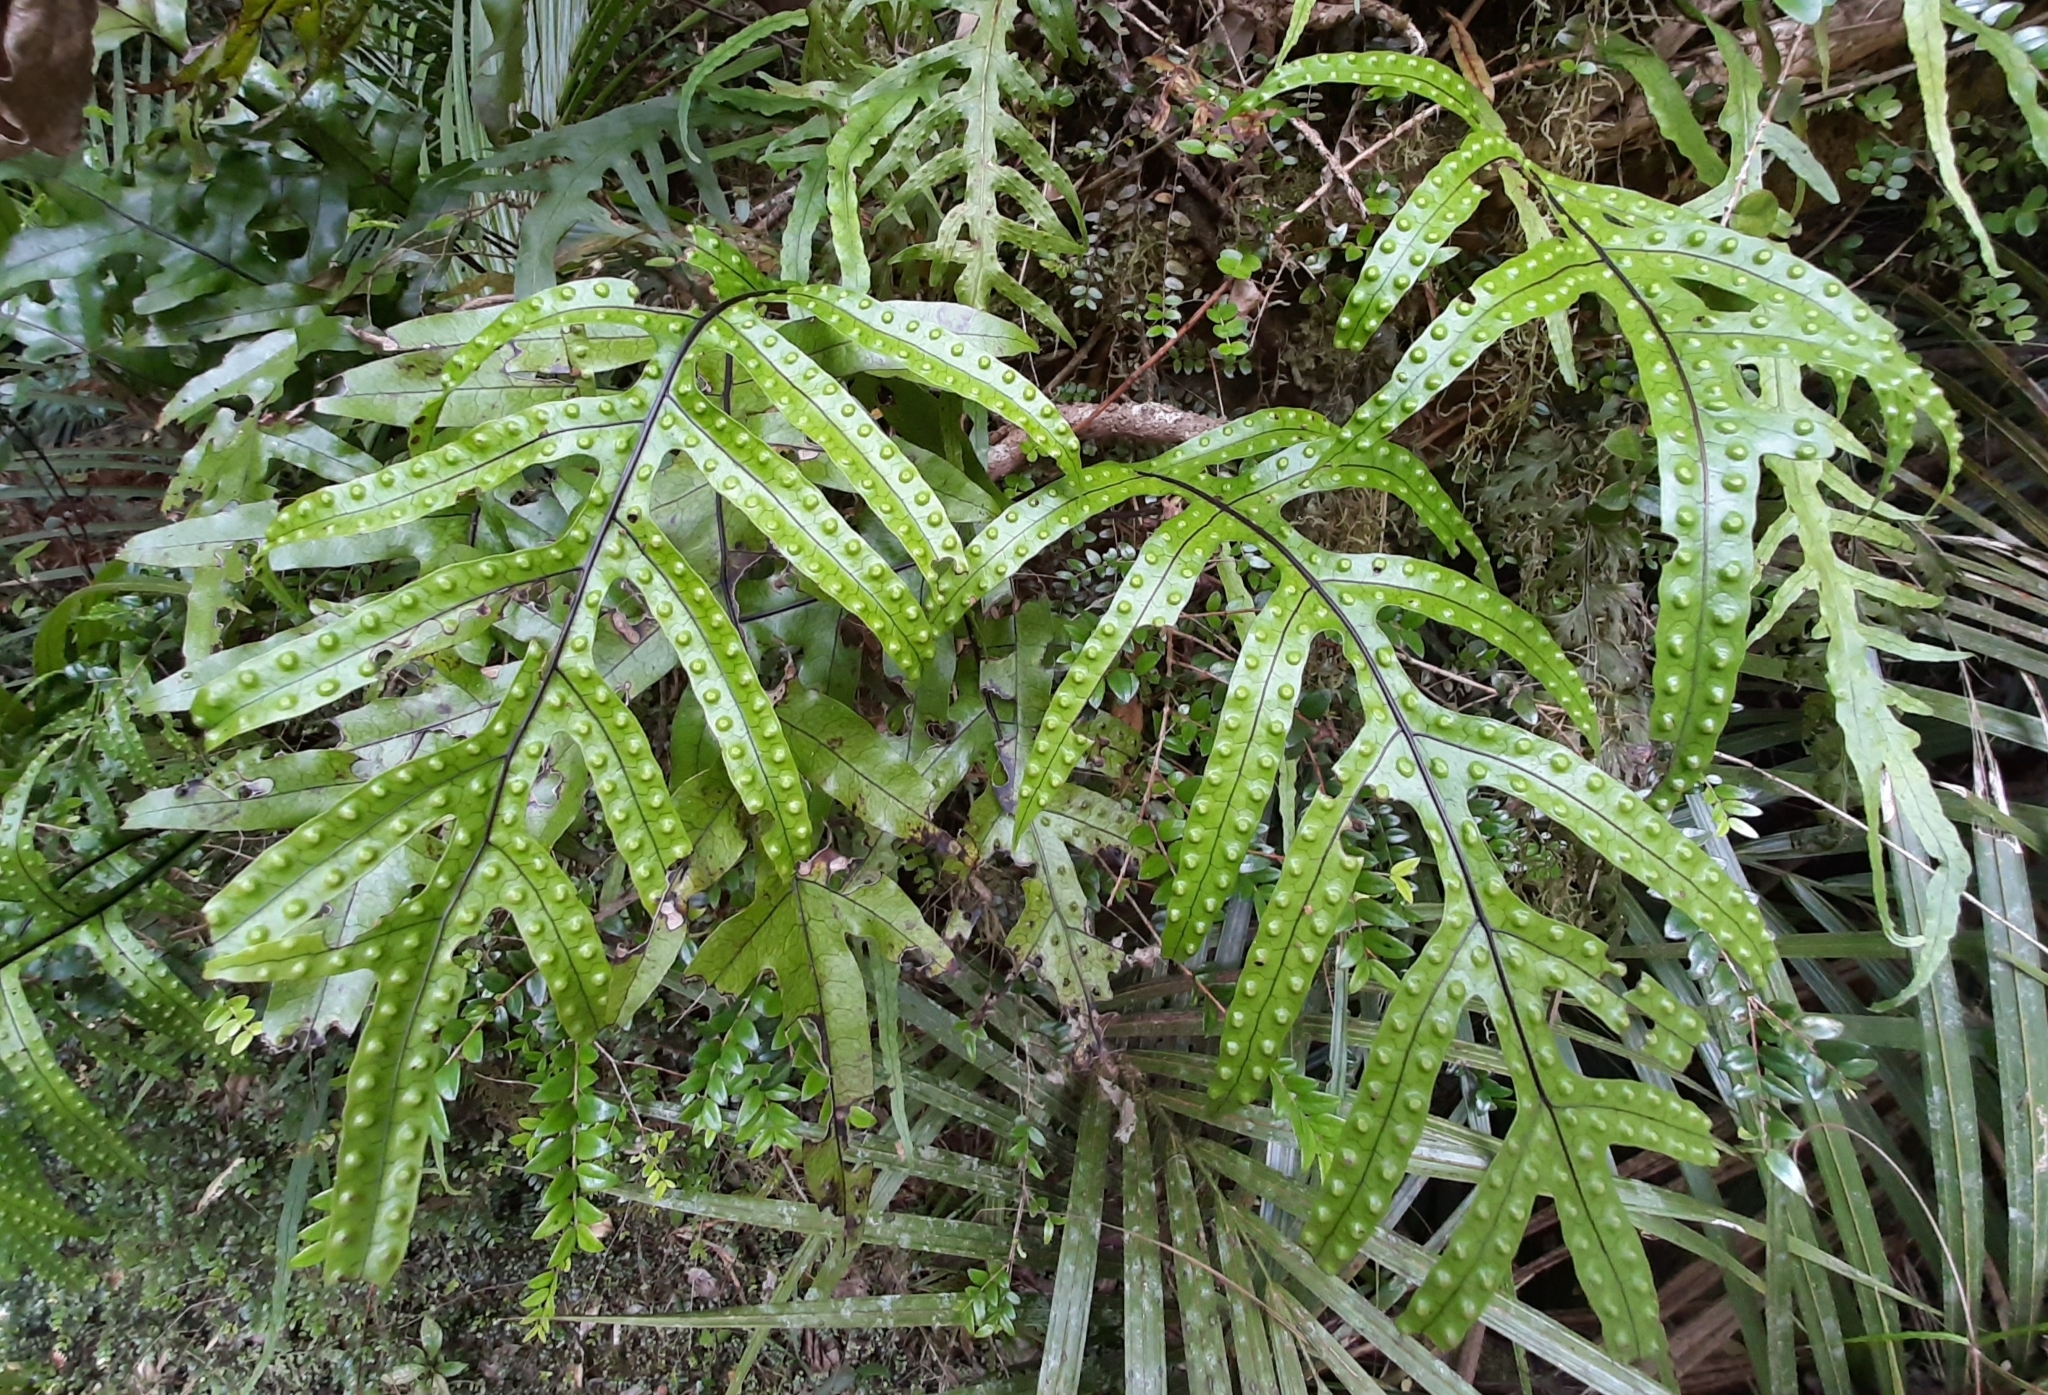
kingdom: Plantae
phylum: Tracheophyta
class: Polypodiopsida
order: Polypodiales
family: Polypodiaceae
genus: Lecanopteris
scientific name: Lecanopteris pustulata
